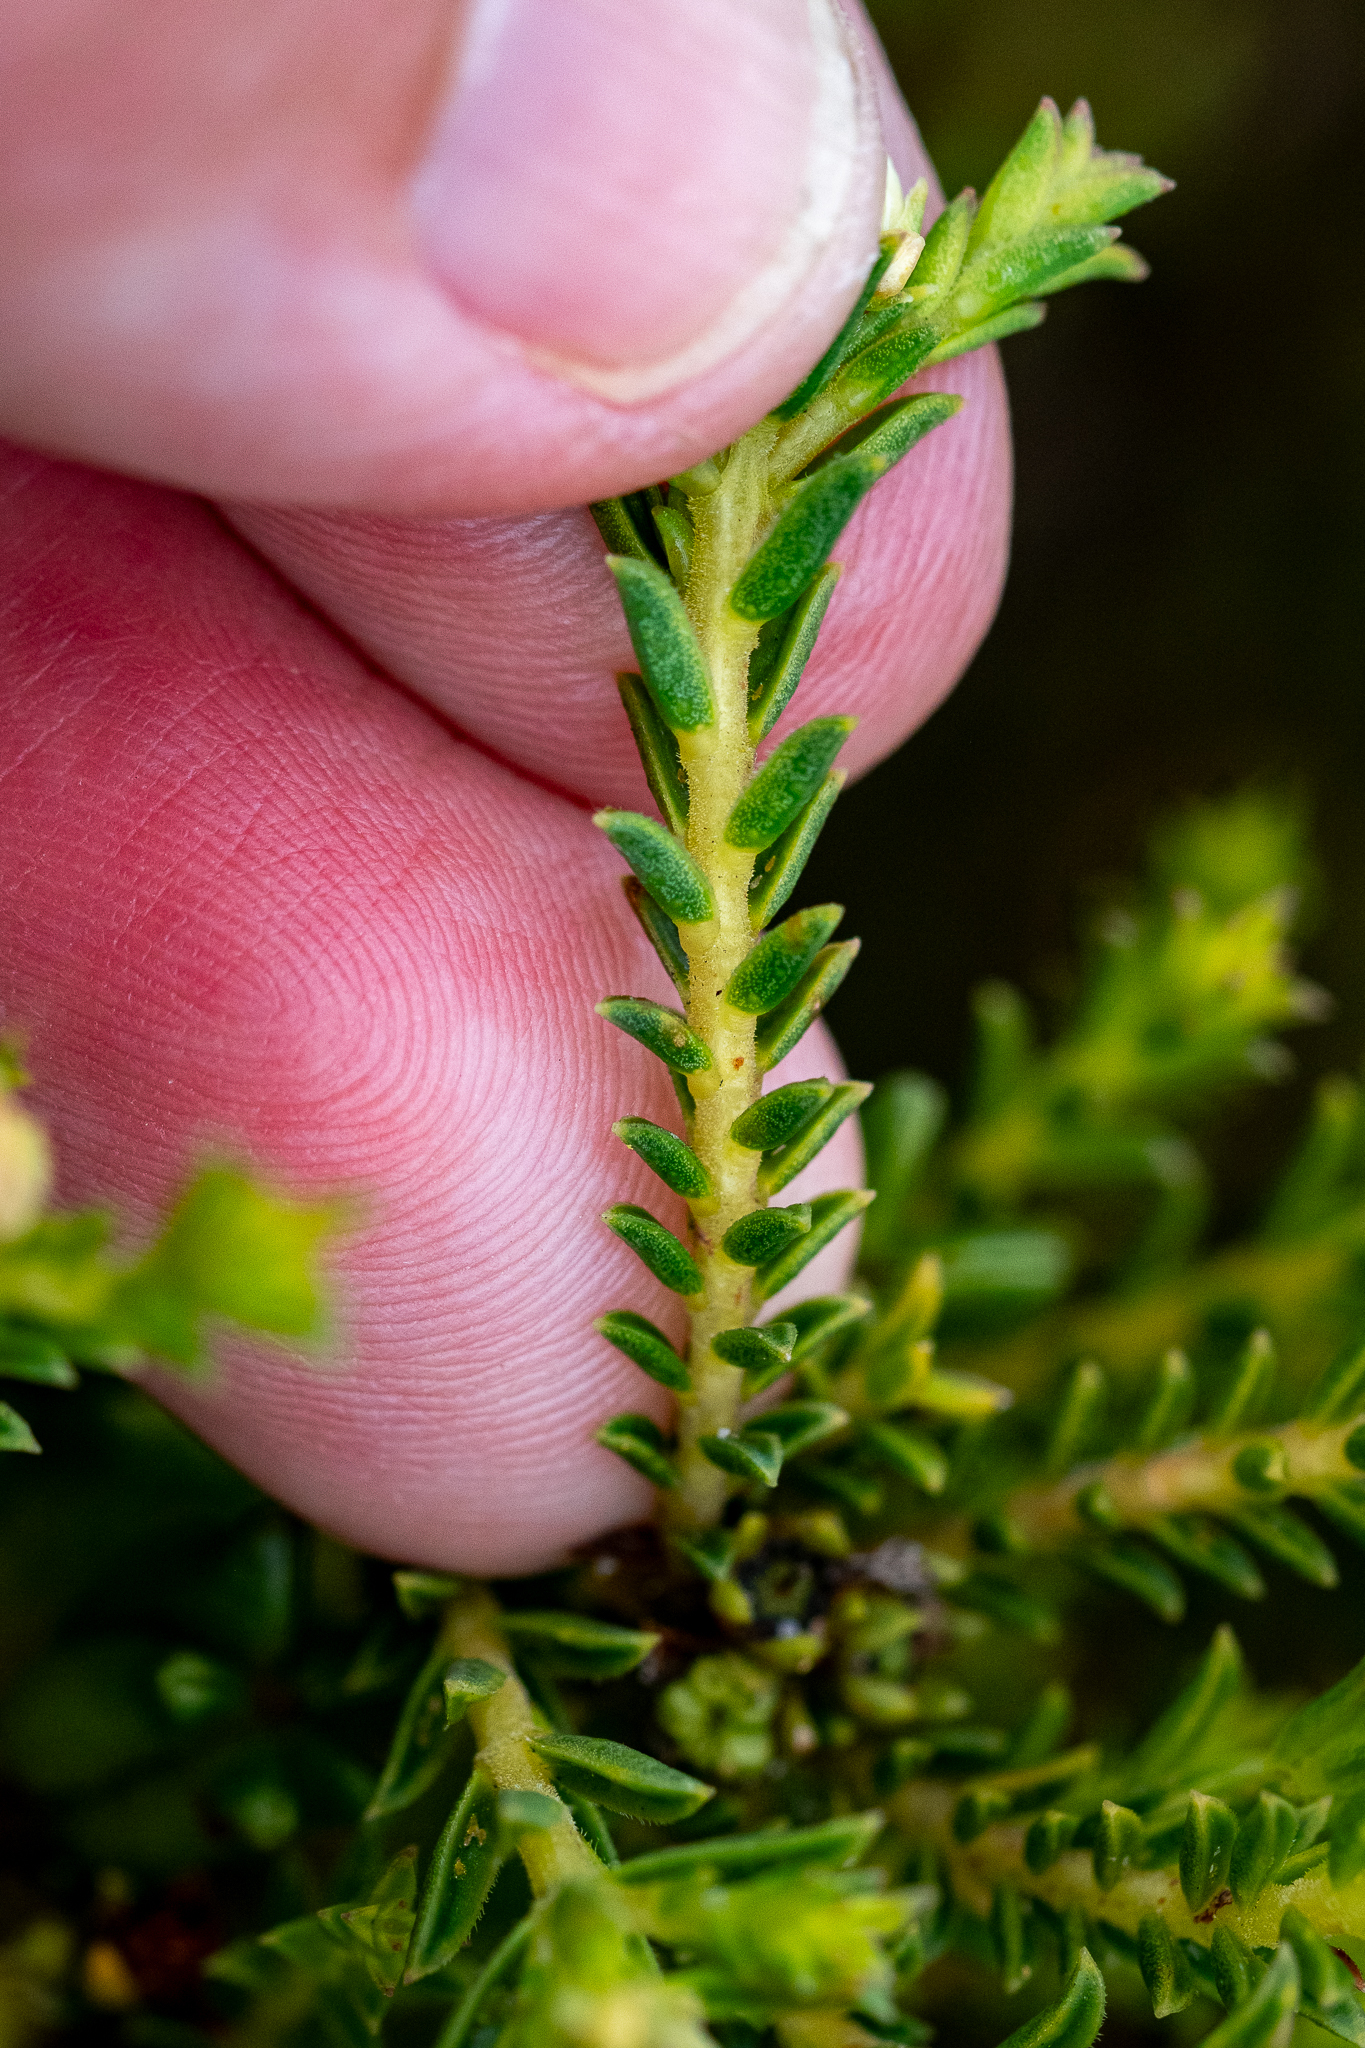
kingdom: Plantae
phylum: Tracheophyta
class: Magnoliopsida
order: Sapindales
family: Rutaceae
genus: Diosma
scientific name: Diosma oppositifolia
